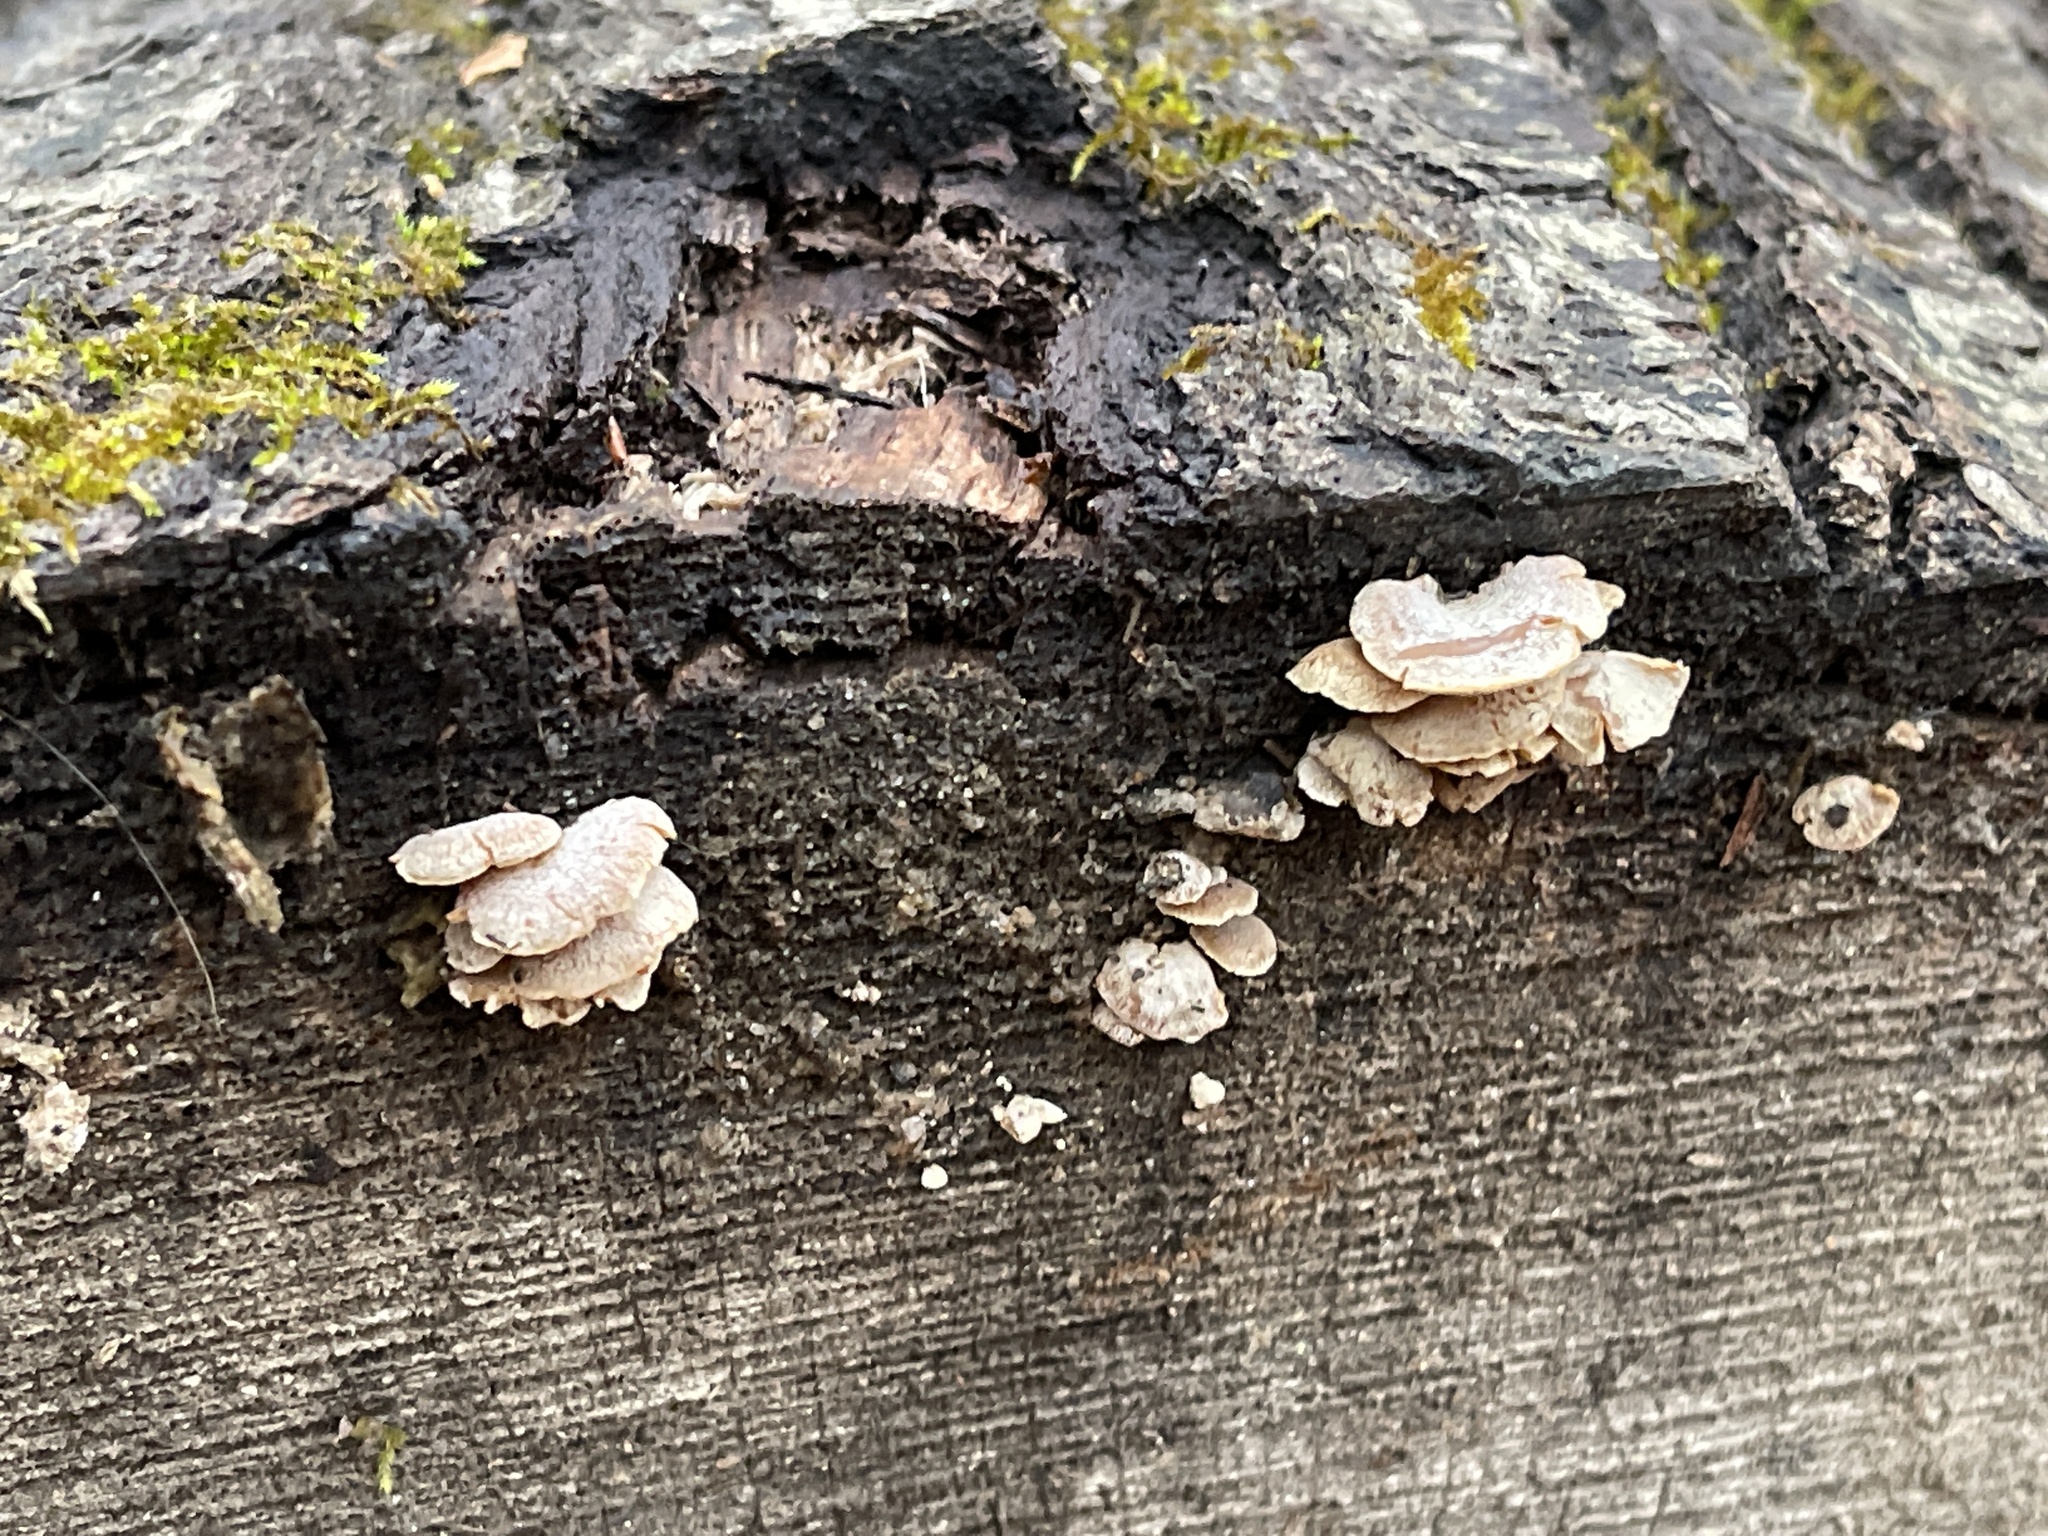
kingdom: Fungi
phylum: Basidiomycota
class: Agaricomycetes
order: Agaricales
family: Mycenaceae
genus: Panellus
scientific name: Panellus stipticus
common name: Bitter oysterling
